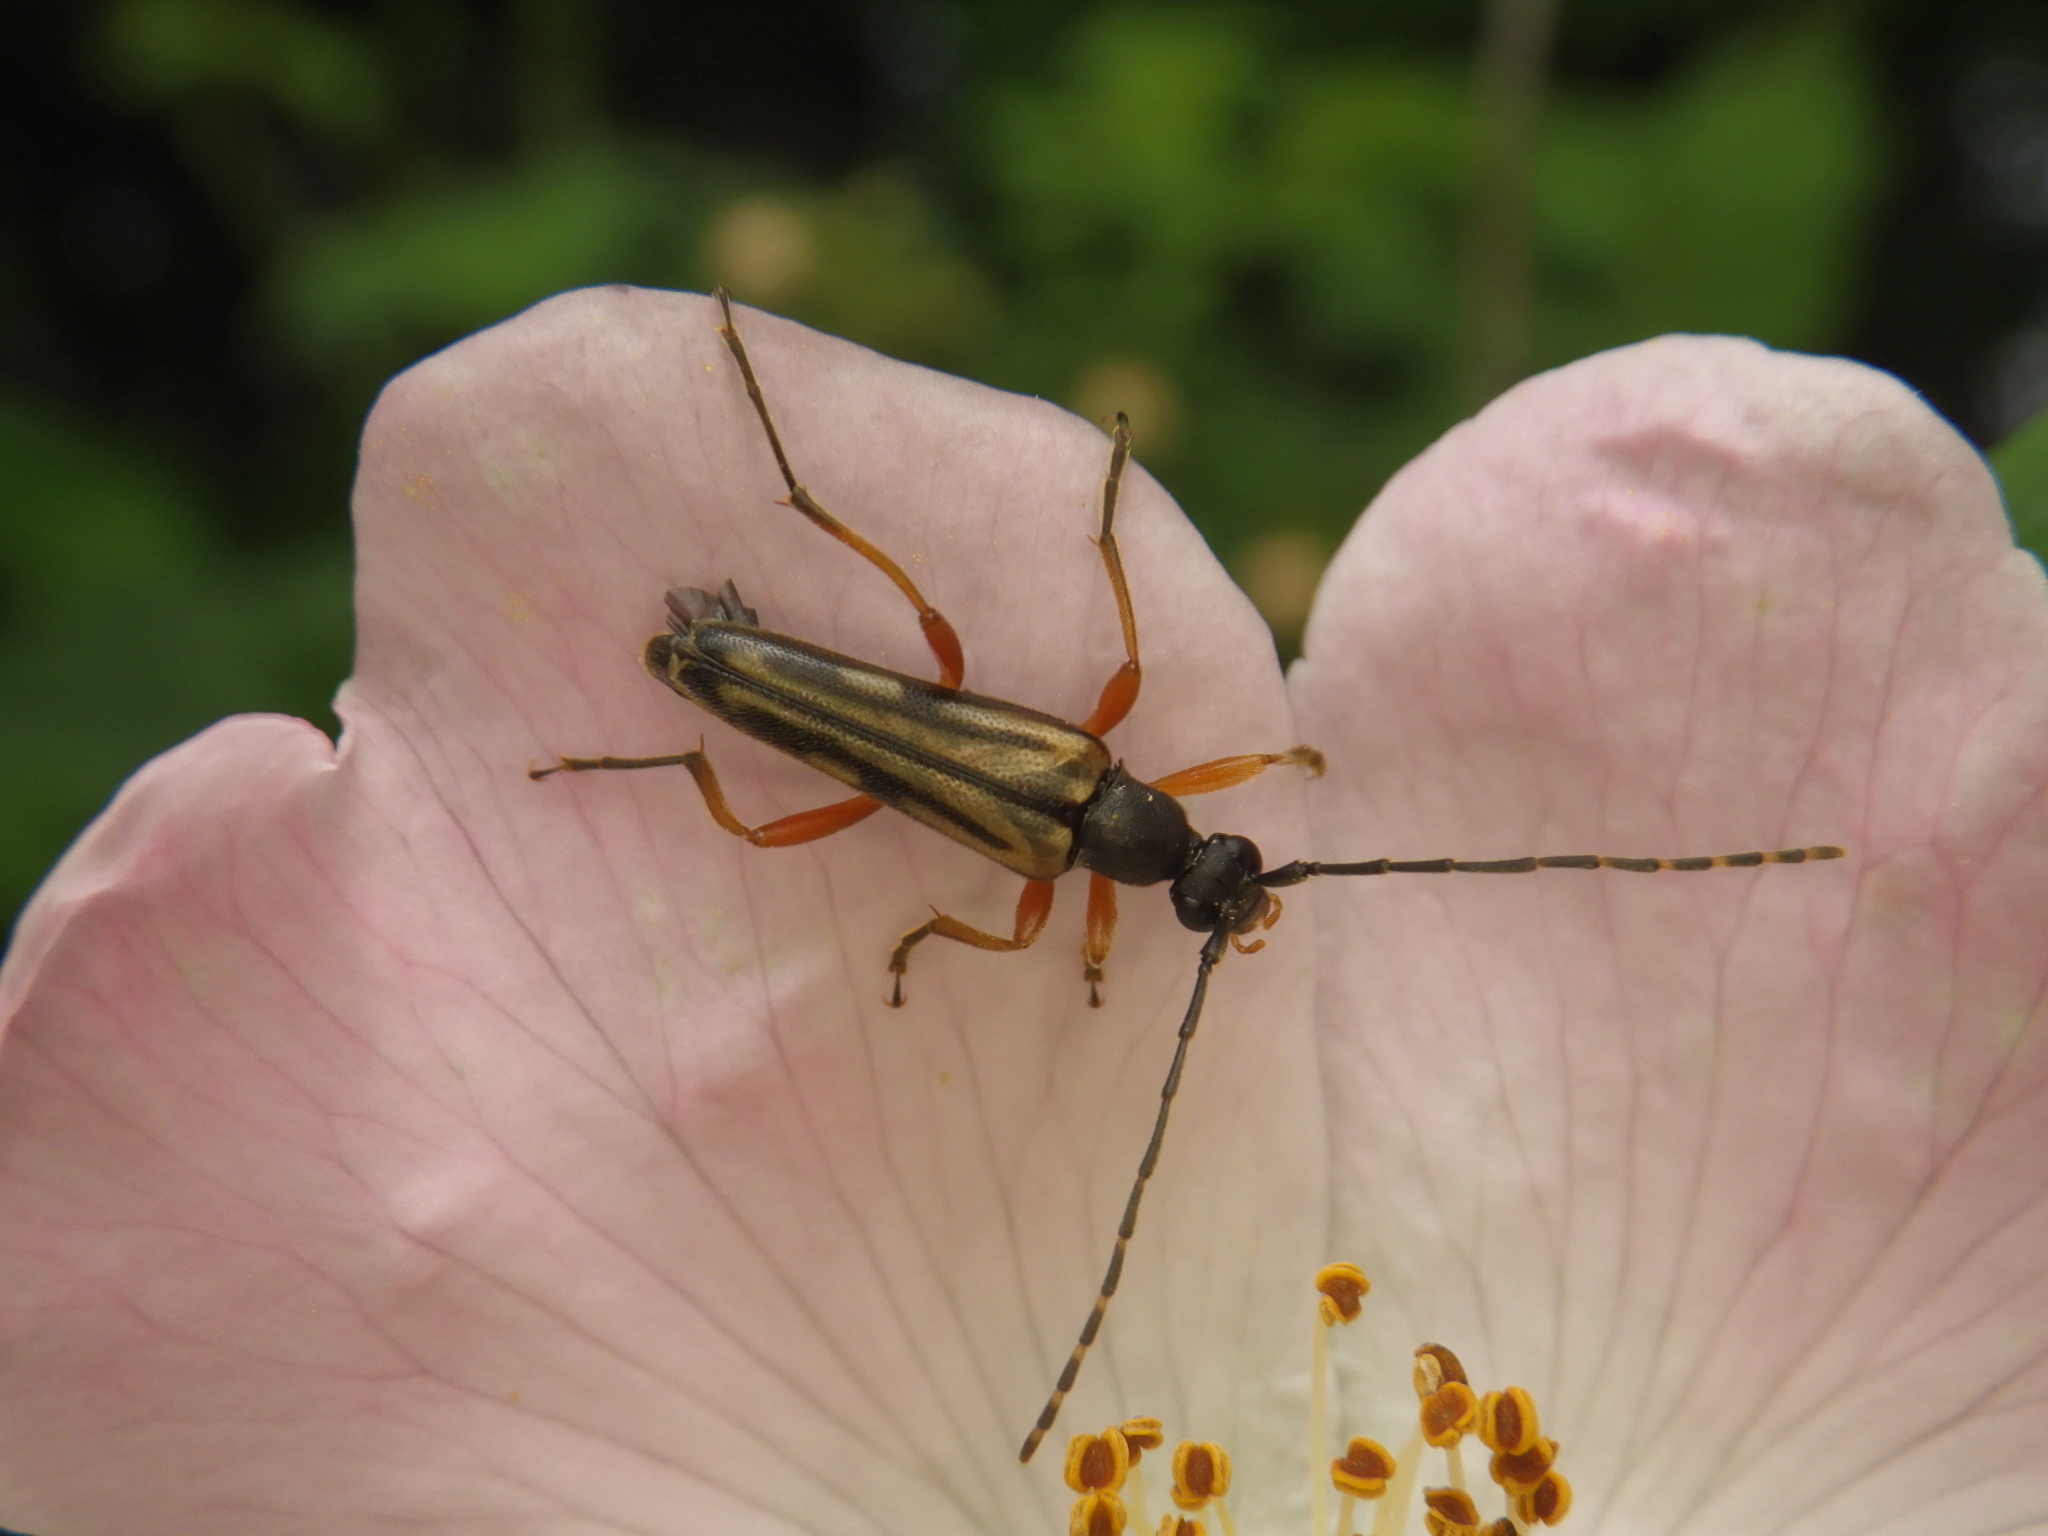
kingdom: Animalia
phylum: Arthropoda
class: Insecta
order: Coleoptera
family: Cerambycidae
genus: Analeptura
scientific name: Analeptura lineola
